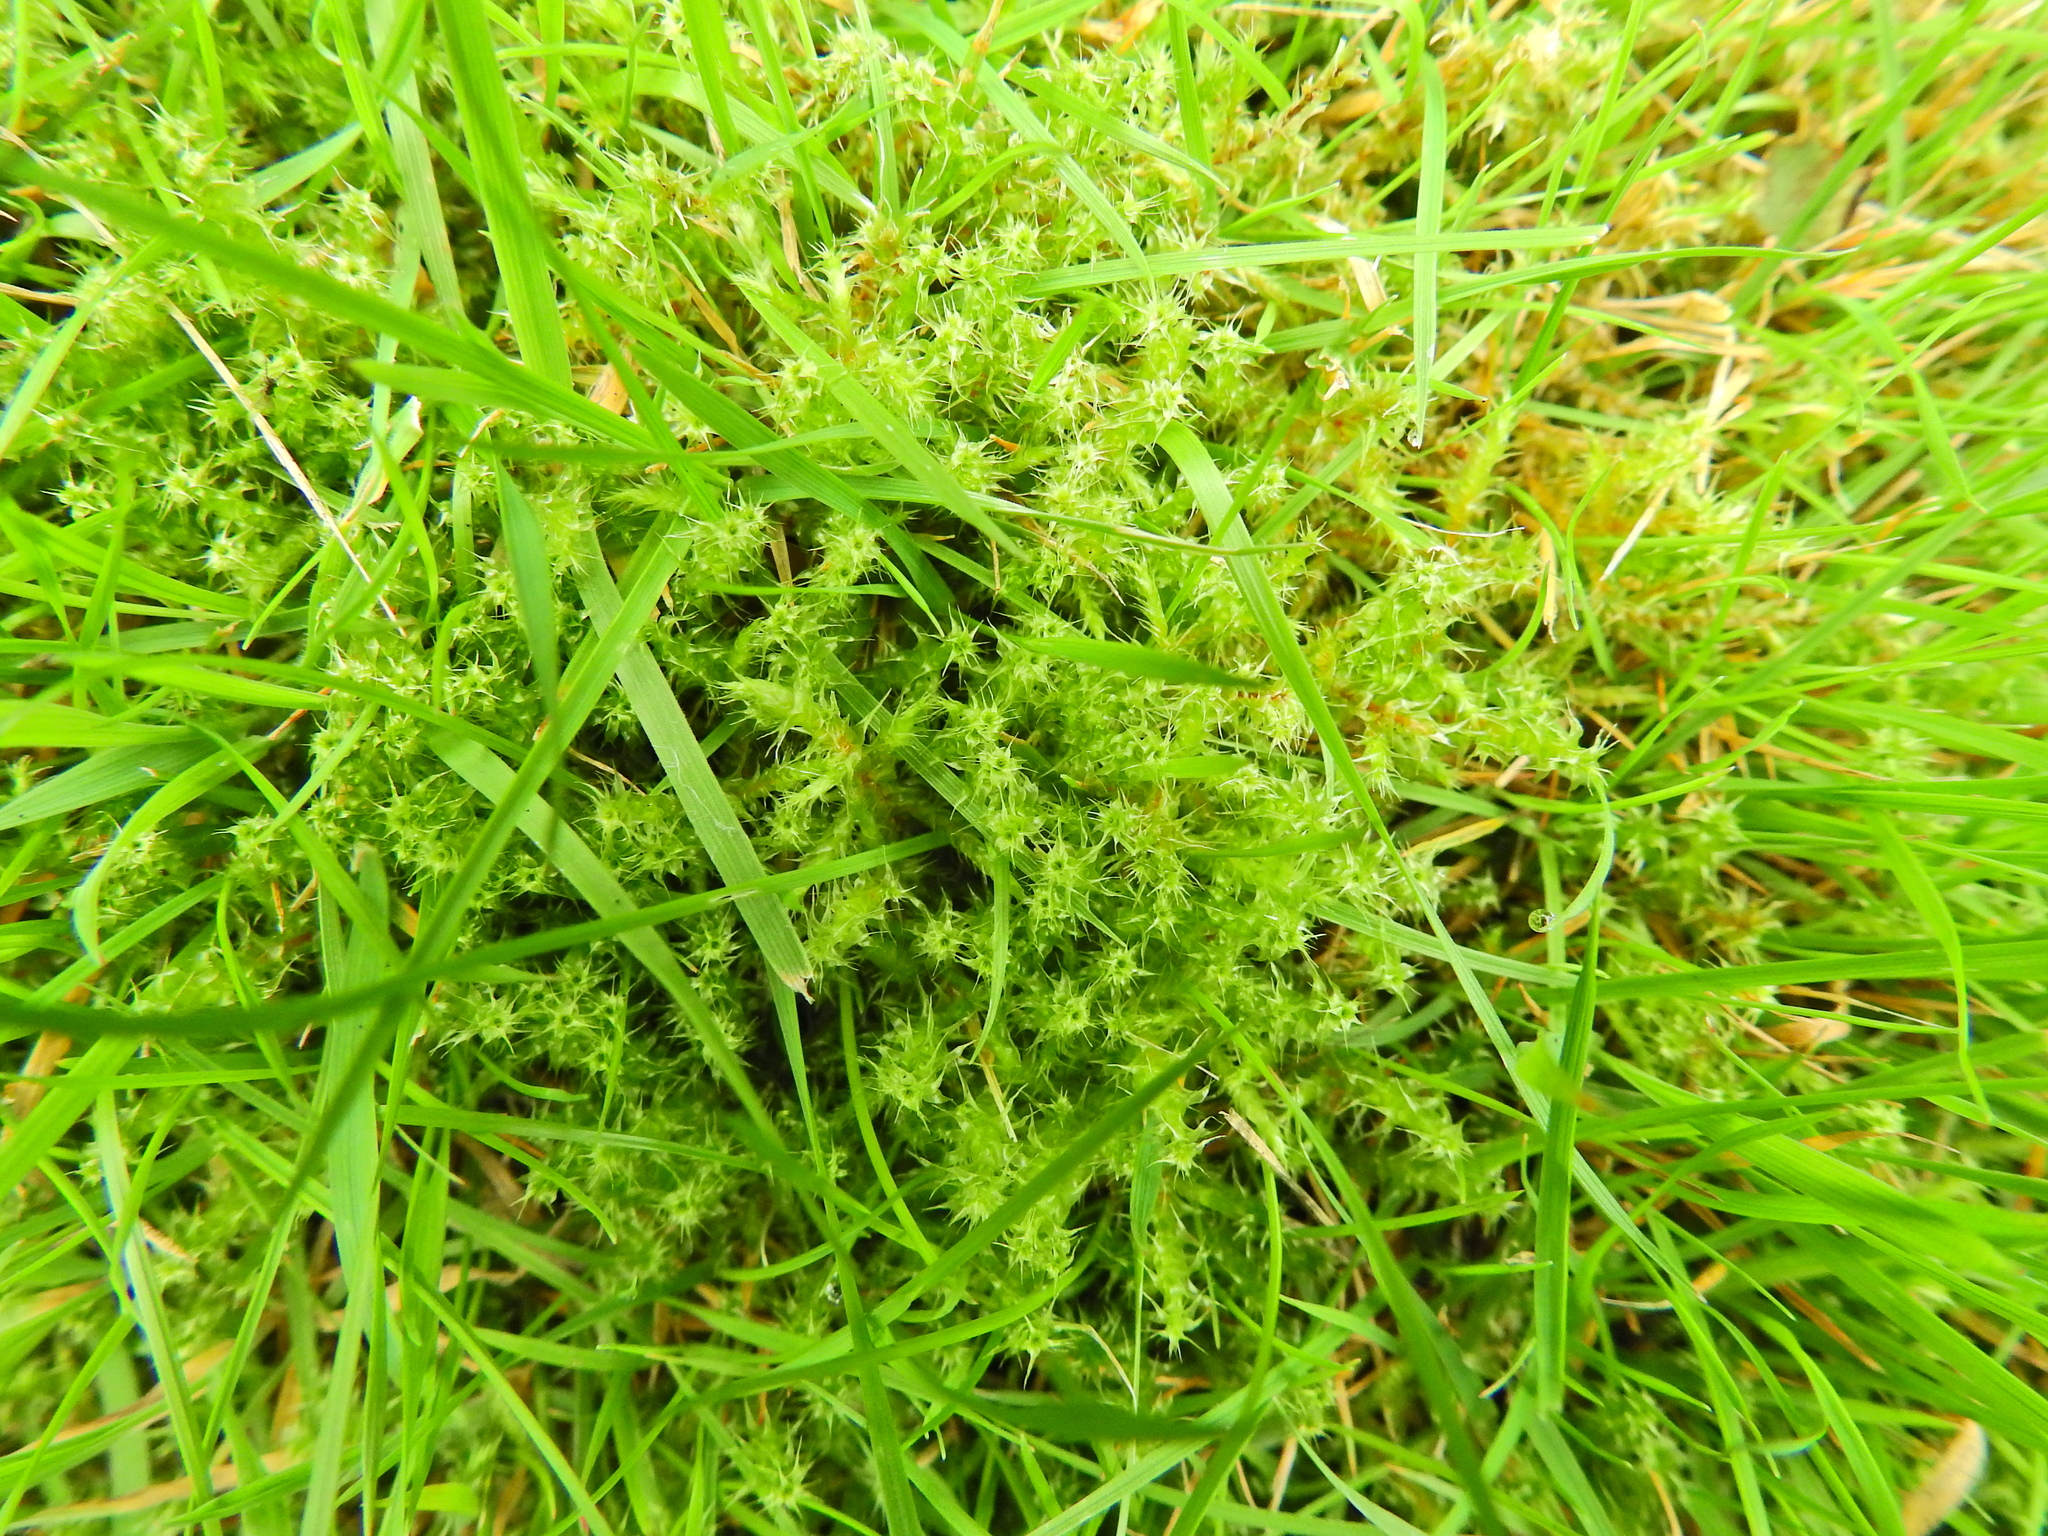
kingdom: Plantae
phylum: Bryophyta
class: Bryopsida
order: Hypnales
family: Hylocomiaceae
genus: Rhytidiadelphus
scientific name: Rhytidiadelphus squarrosus
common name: Springy turf-moss
